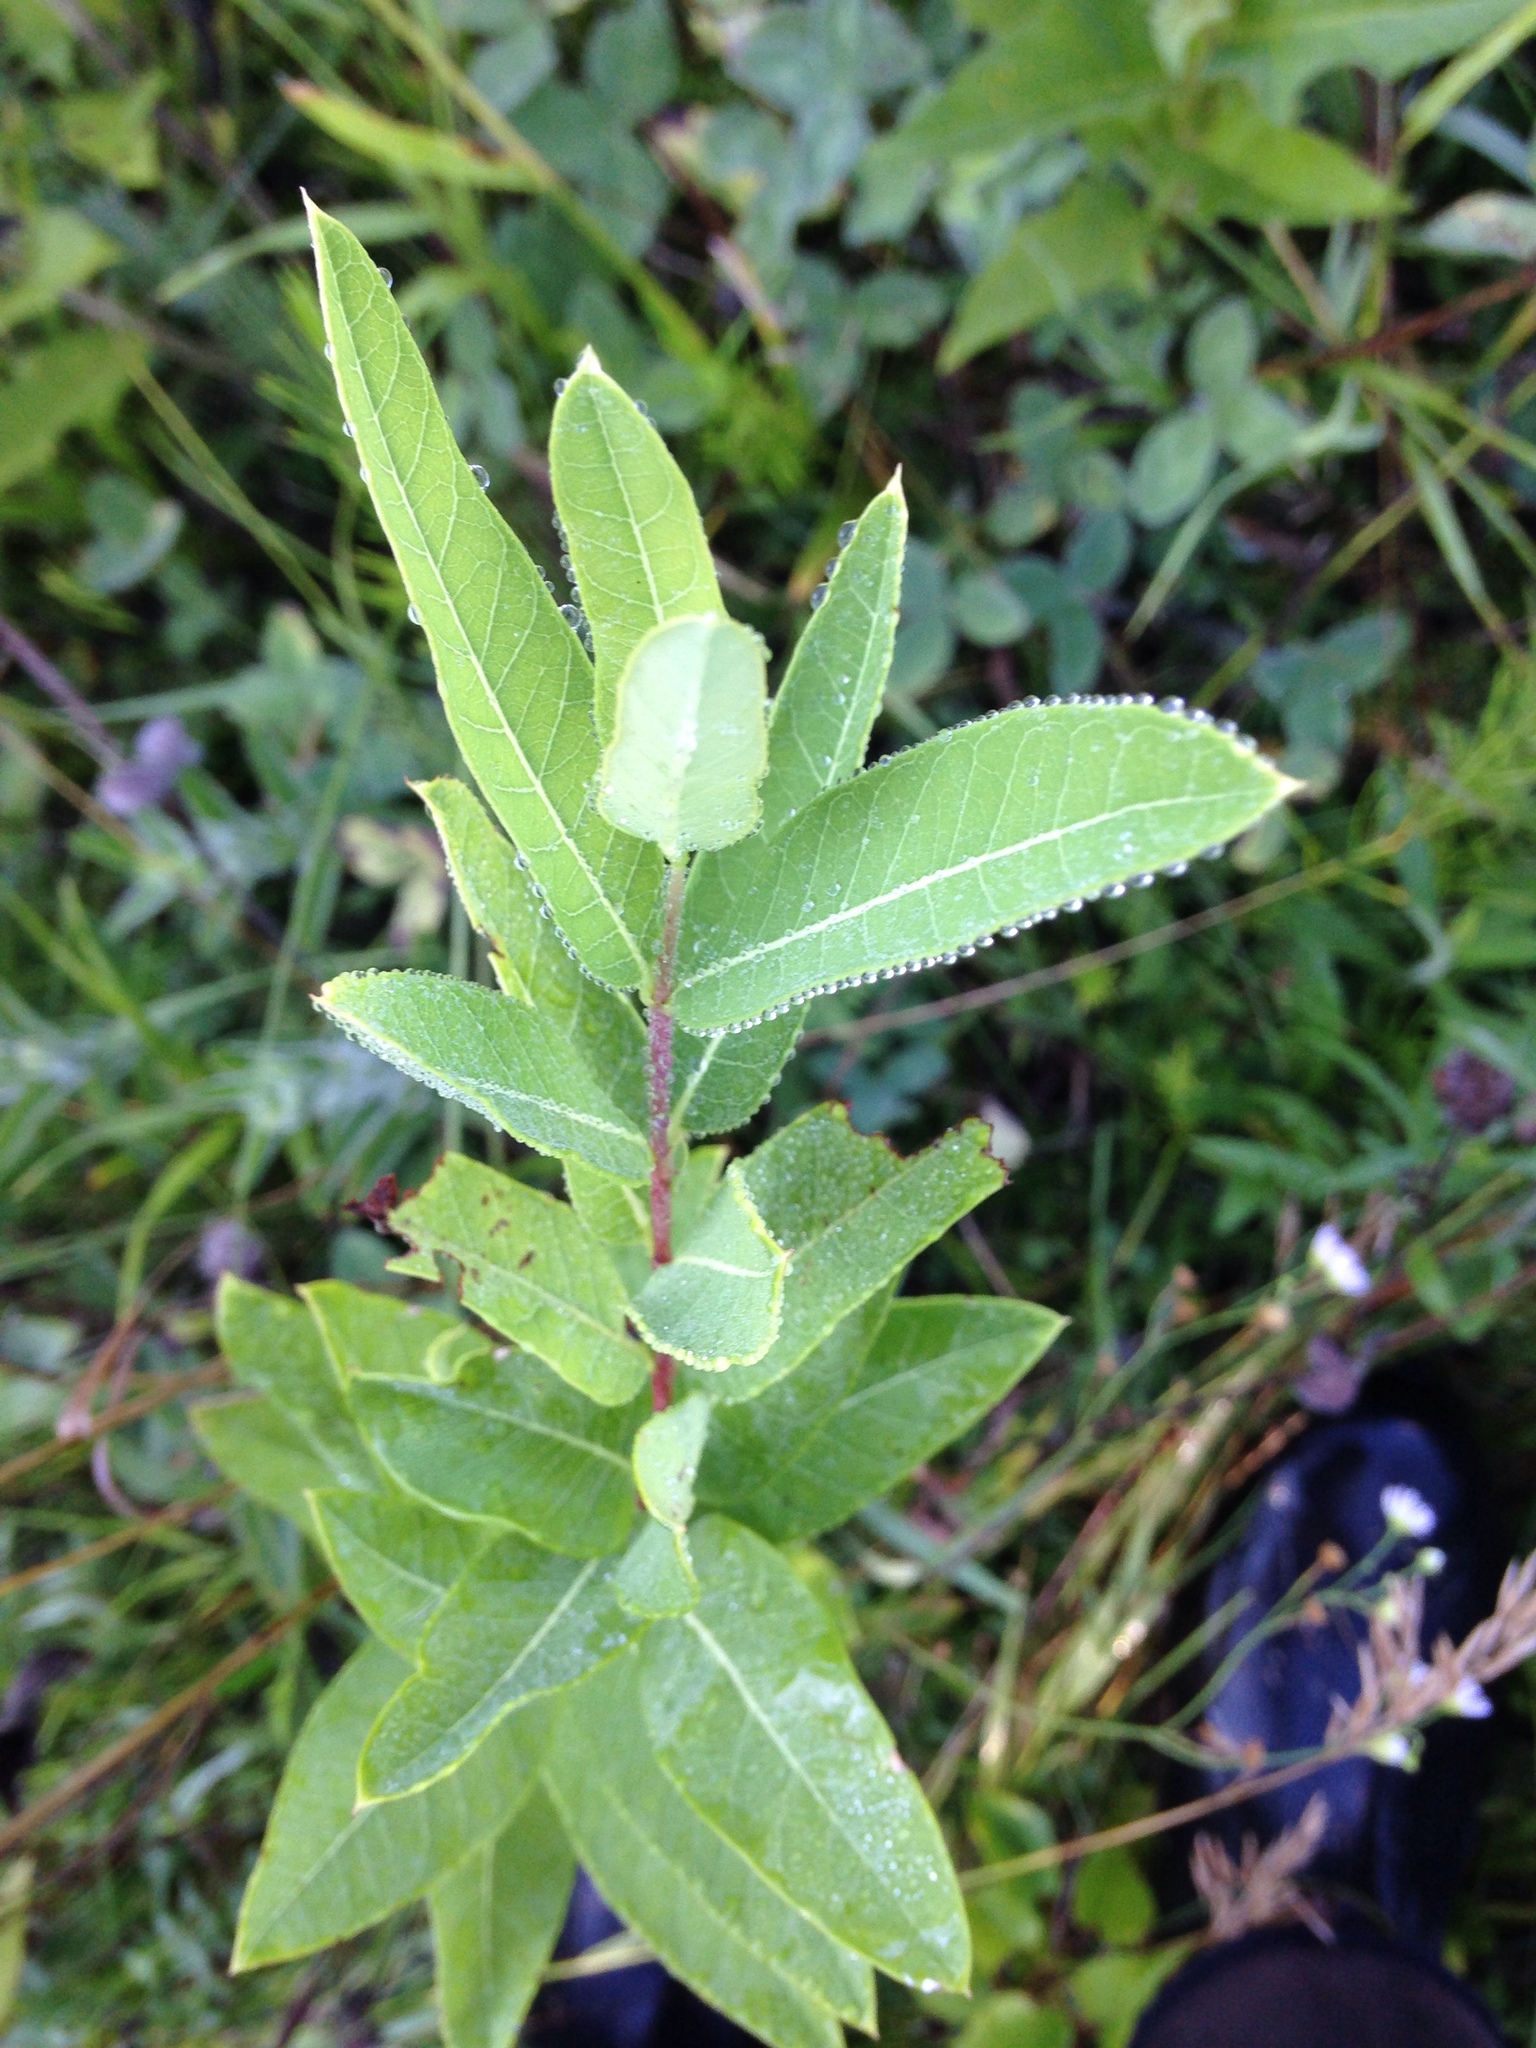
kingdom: Plantae
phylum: Tracheophyta
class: Magnoliopsida
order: Gentianales
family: Apocynaceae
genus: Apocynum
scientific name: Apocynum cannabinum
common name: Hemp dogbane
